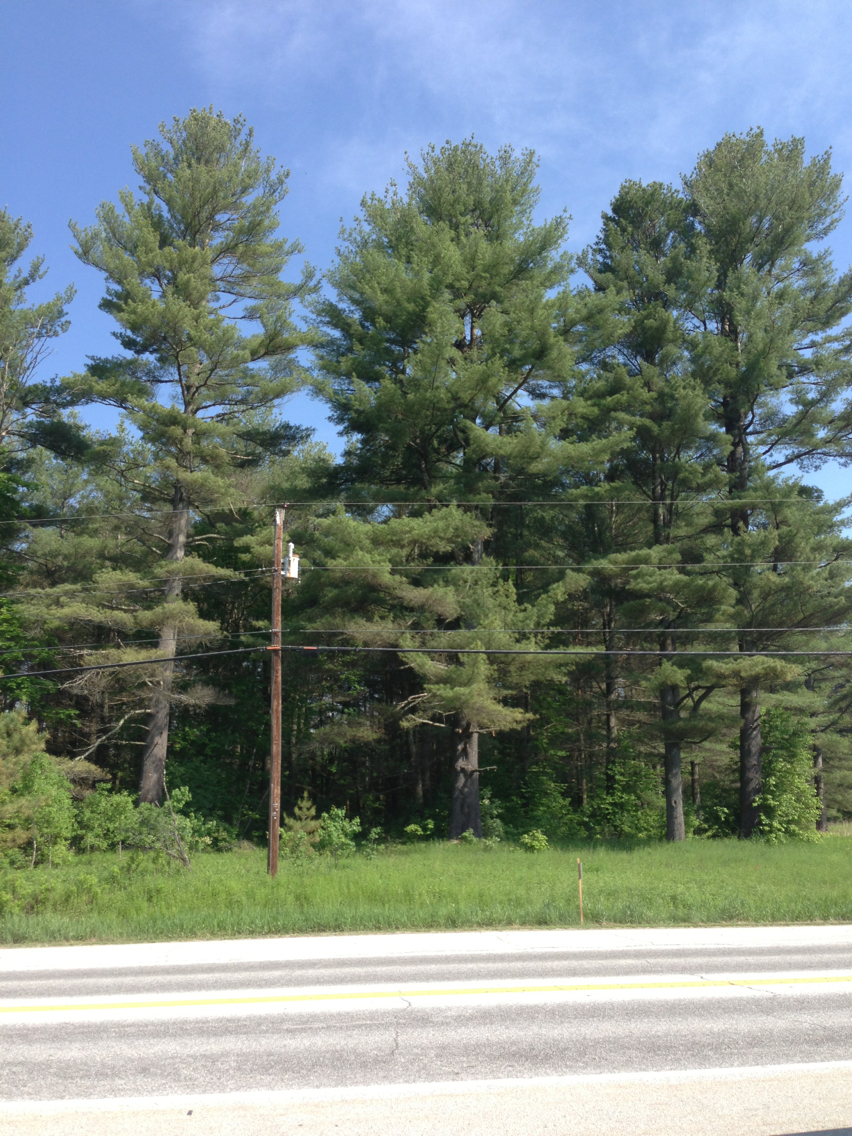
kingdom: Plantae
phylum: Tracheophyta
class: Pinopsida
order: Pinales
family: Pinaceae
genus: Pinus
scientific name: Pinus strobus
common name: Weymouth pine
